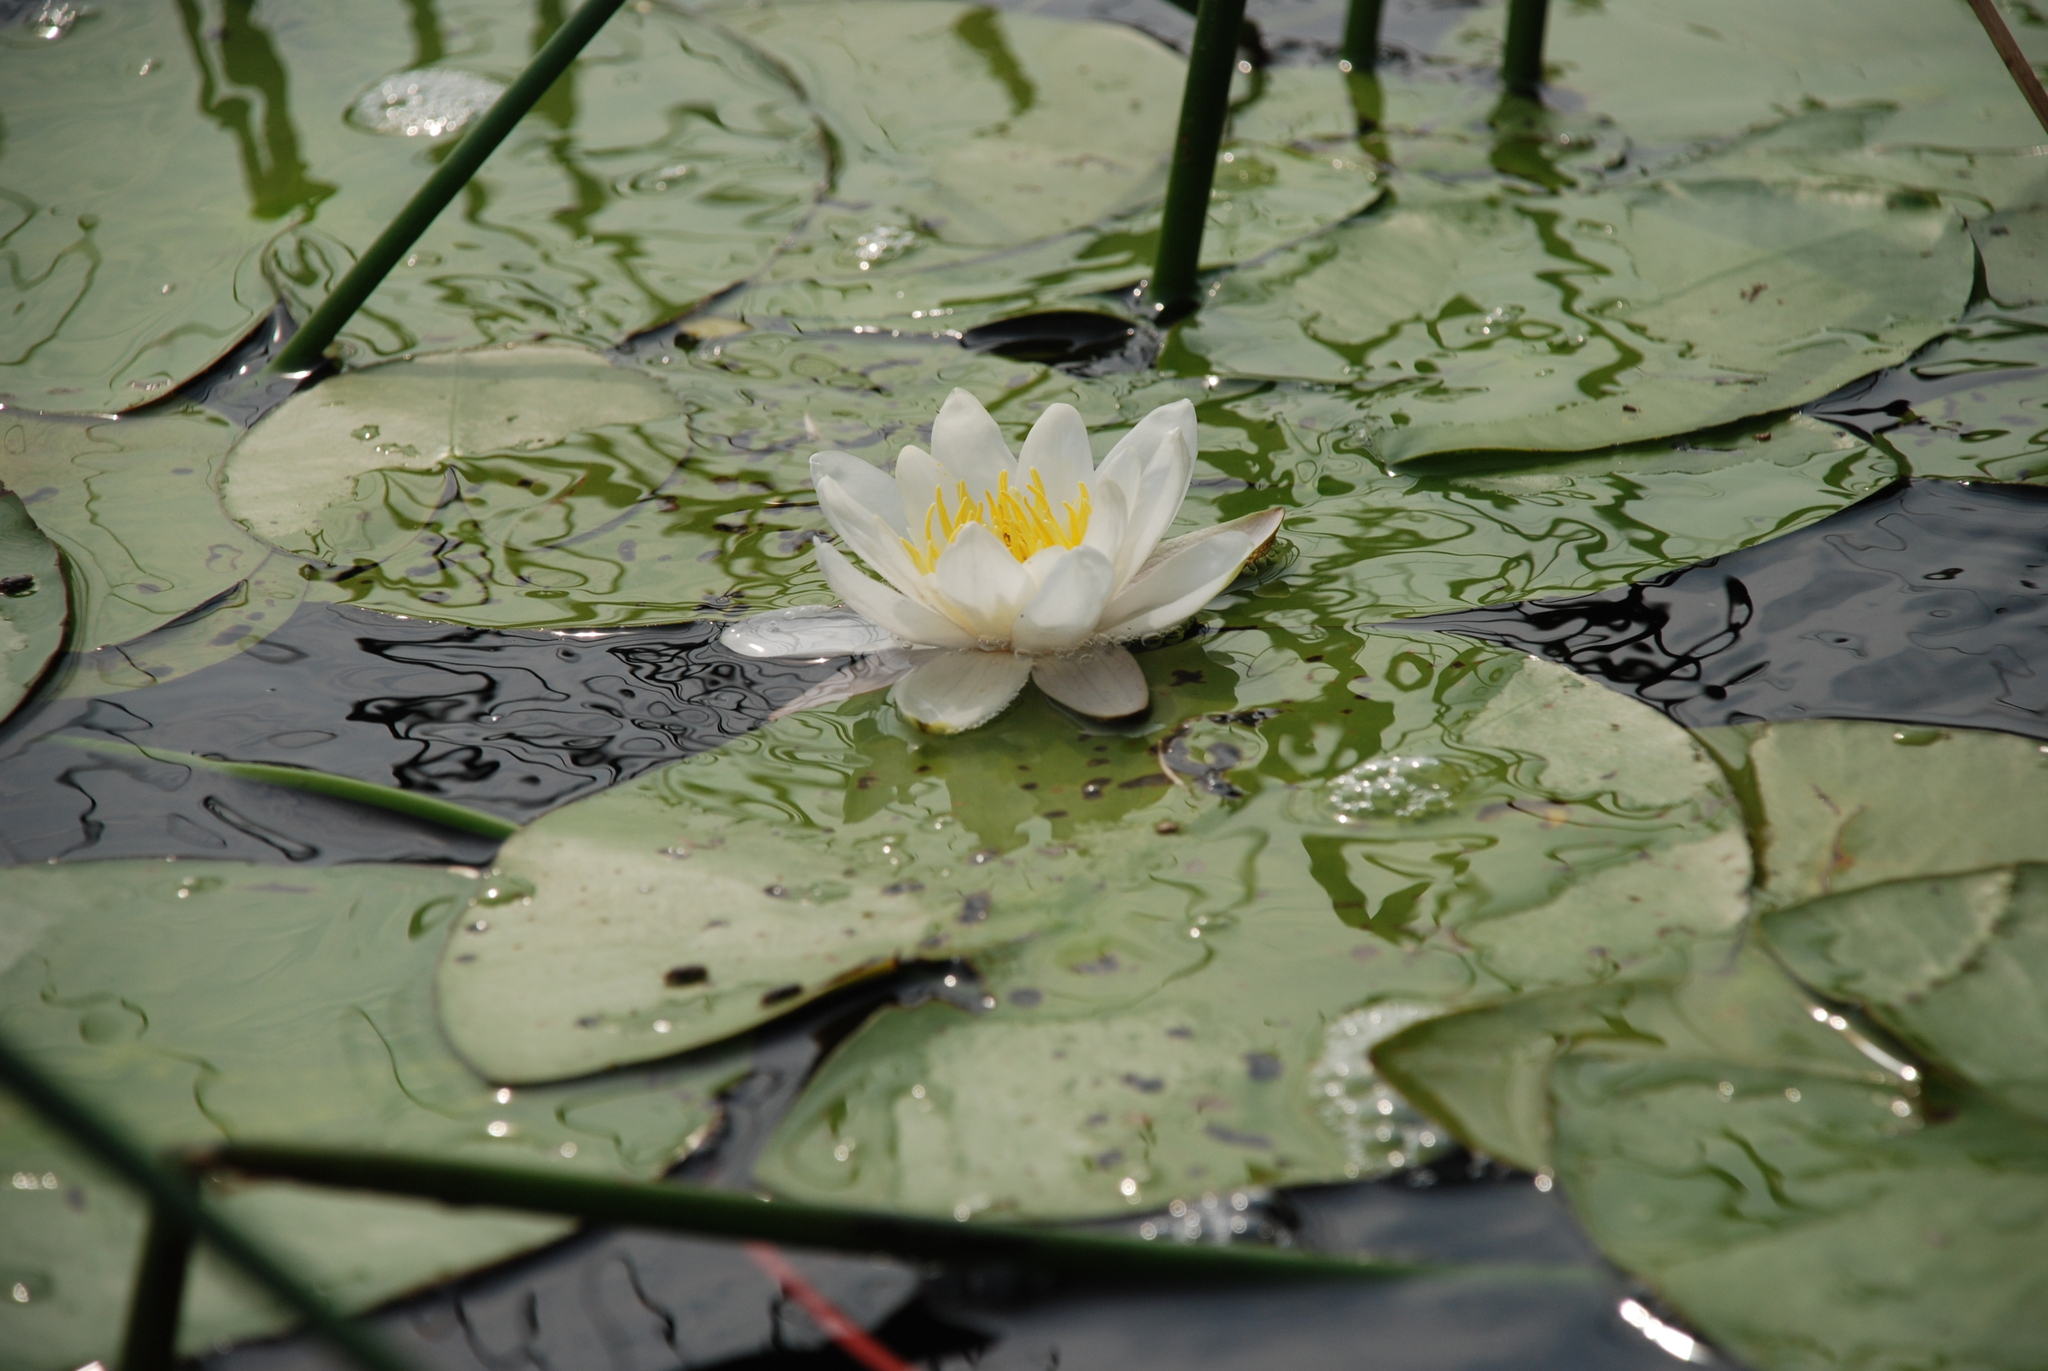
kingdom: Plantae
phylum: Tracheophyta
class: Magnoliopsida
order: Nymphaeales
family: Nymphaeaceae
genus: Nymphaea
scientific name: Nymphaea candida
